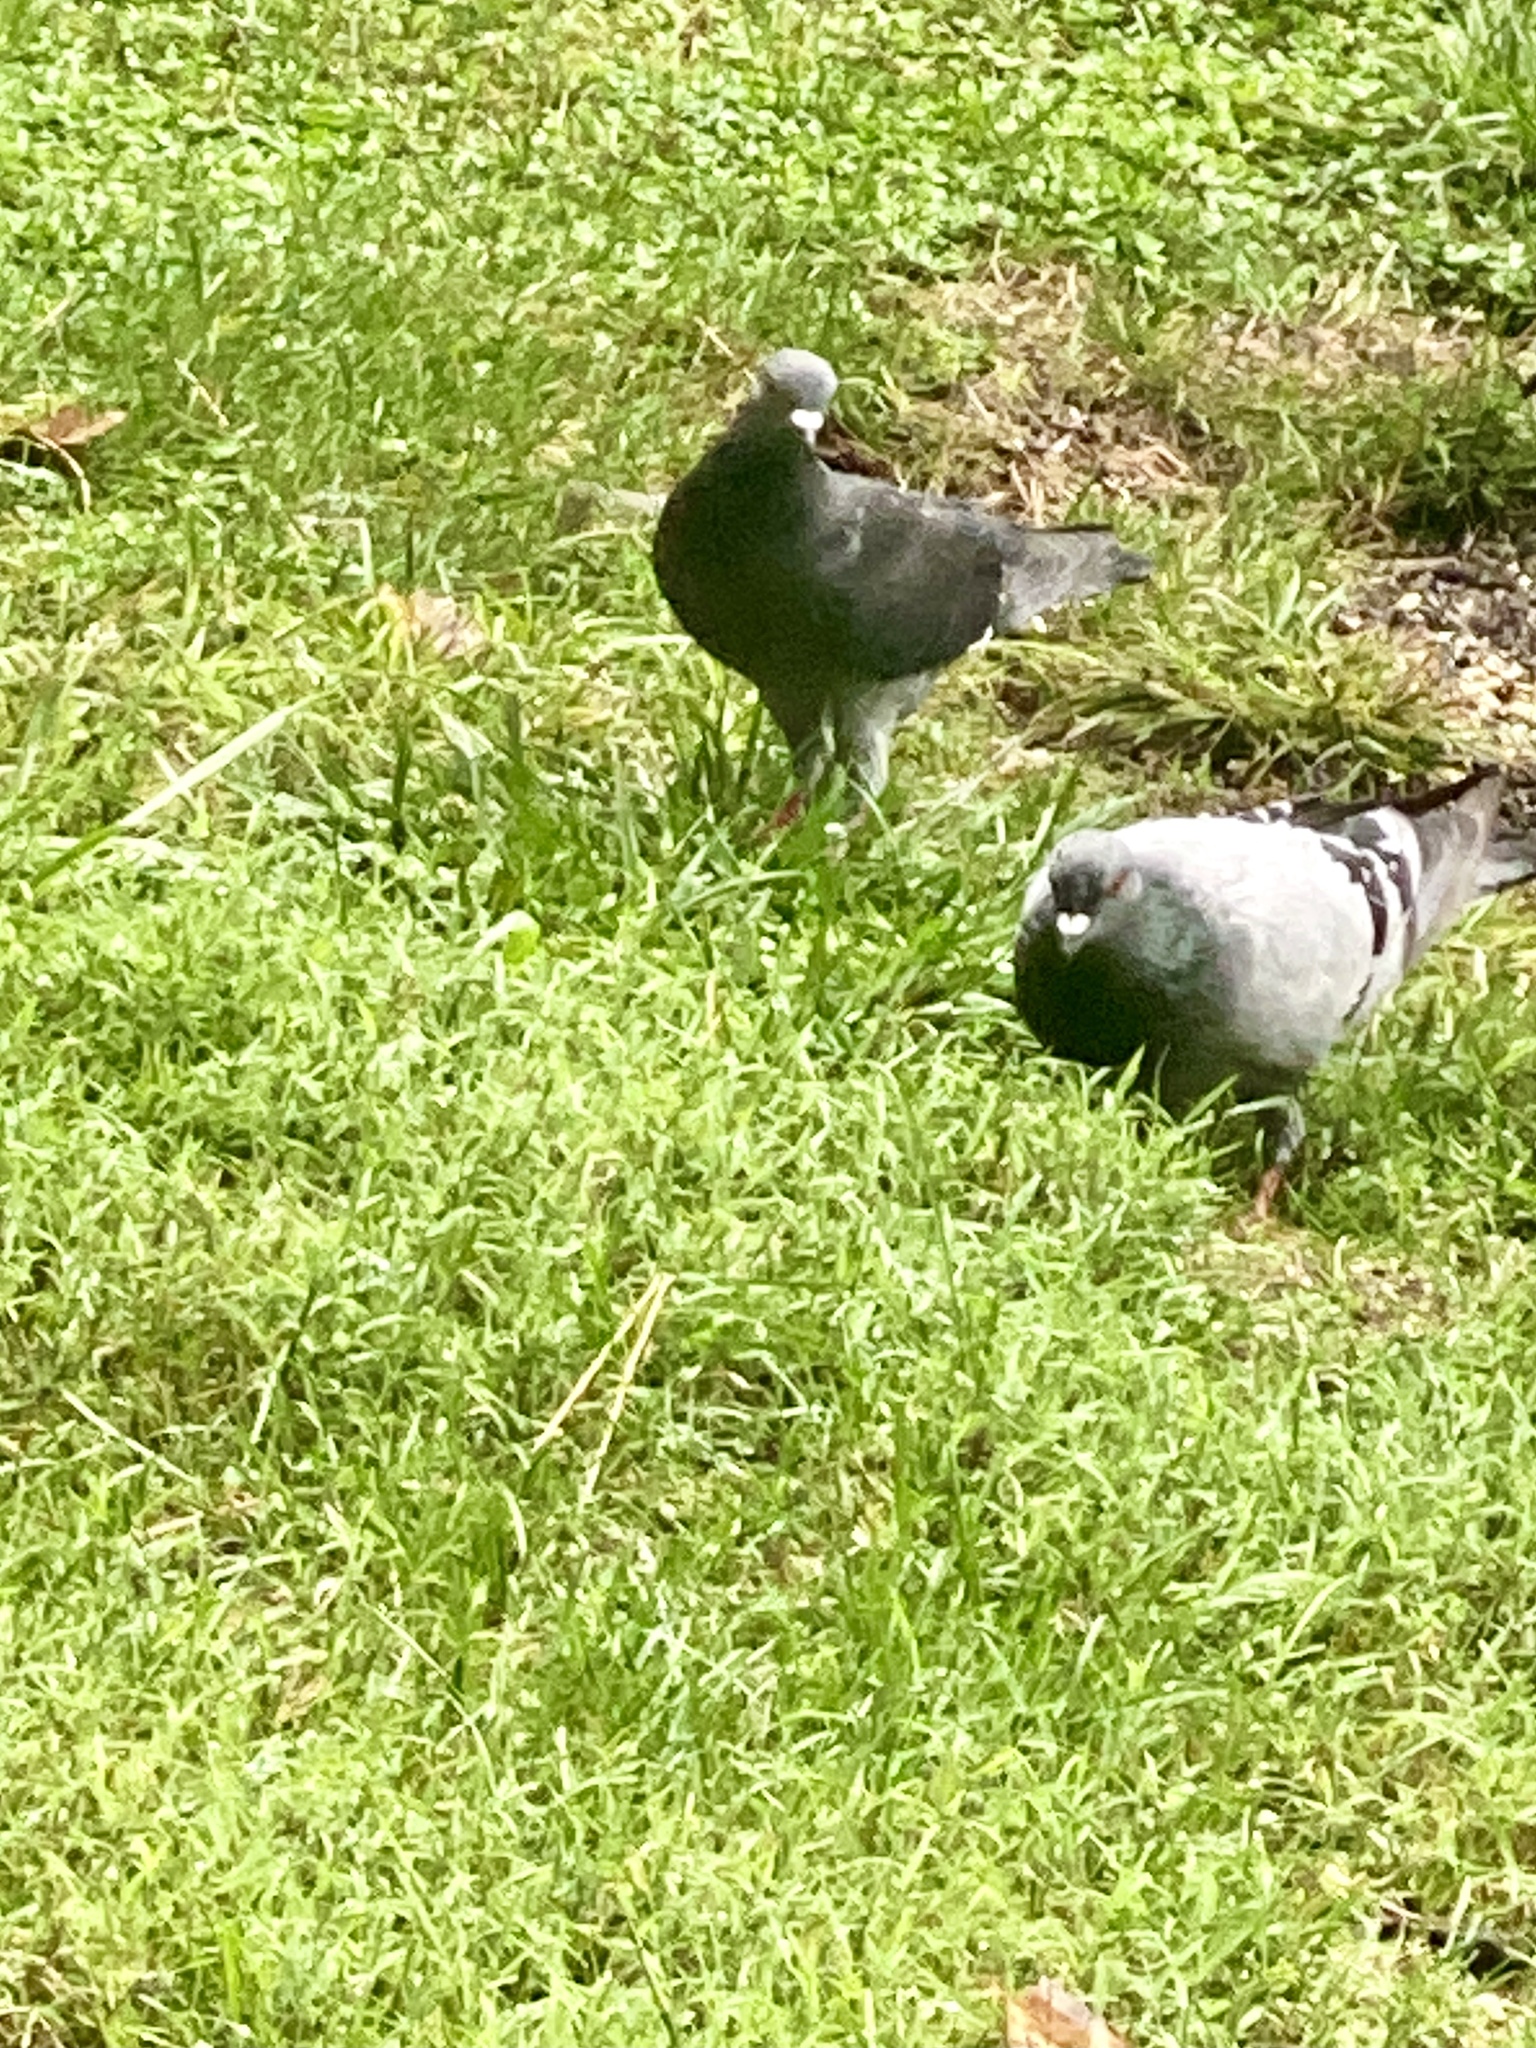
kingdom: Animalia
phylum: Chordata
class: Aves
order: Columbiformes
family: Columbidae
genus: Columba
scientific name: Columba livia
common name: Rock pigeon
